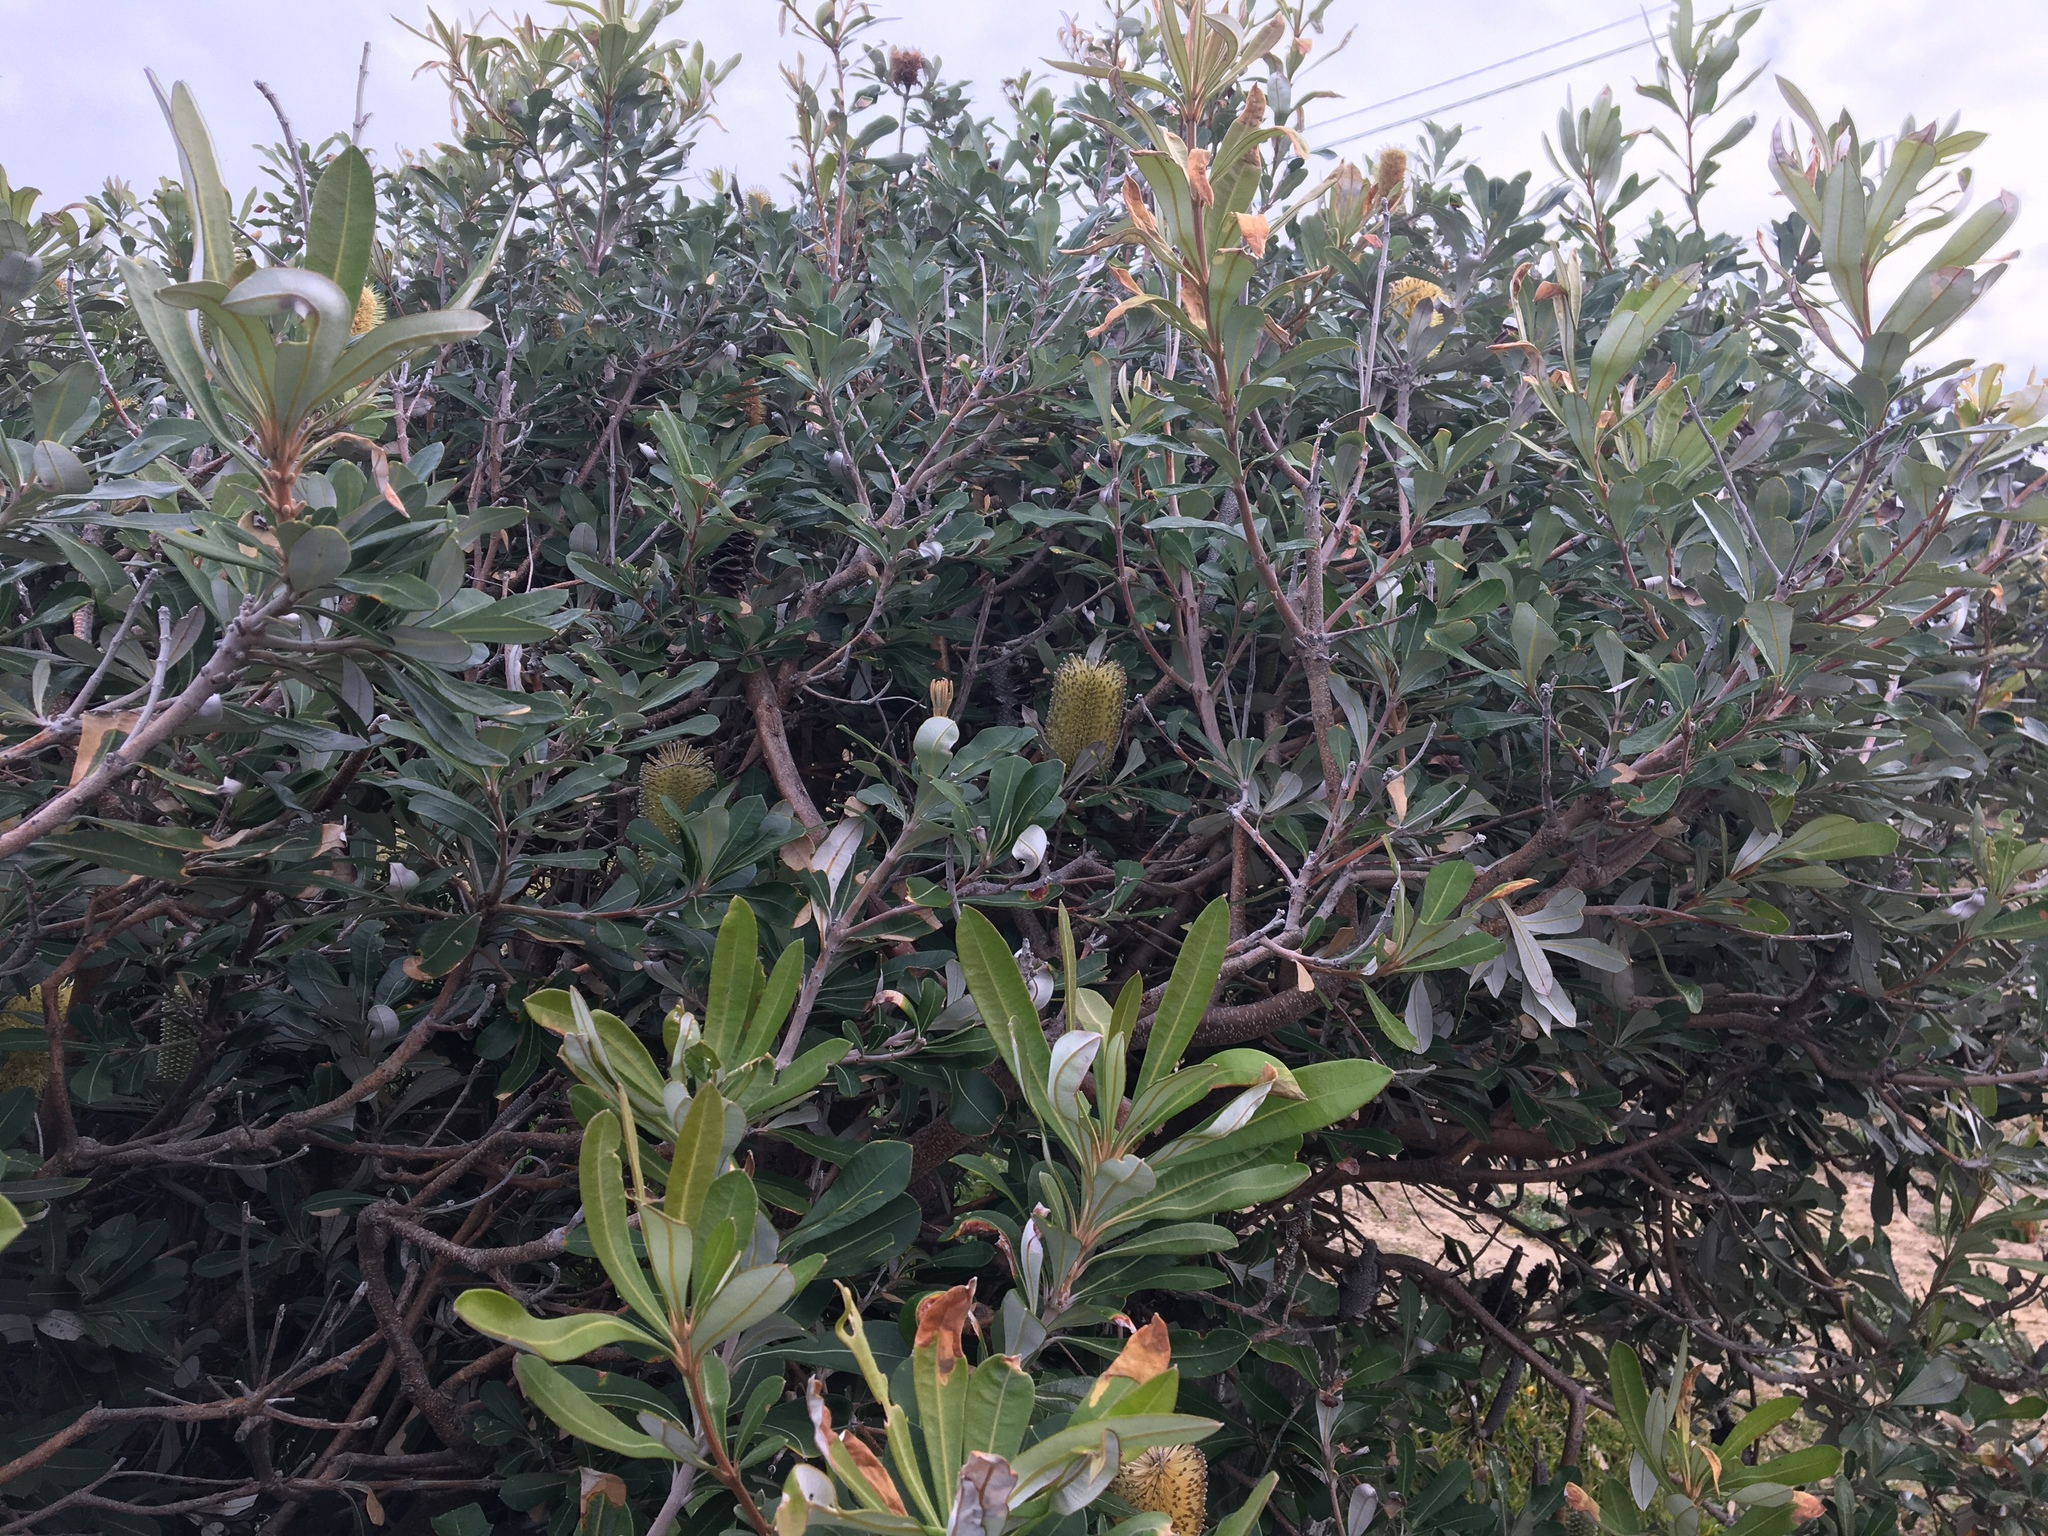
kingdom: Plantae
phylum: Tracheophyta
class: Magnoliopsida
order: Proteales
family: Proteaceae
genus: Banksia
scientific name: Banksia integrifolia
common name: White-honeysuckle
